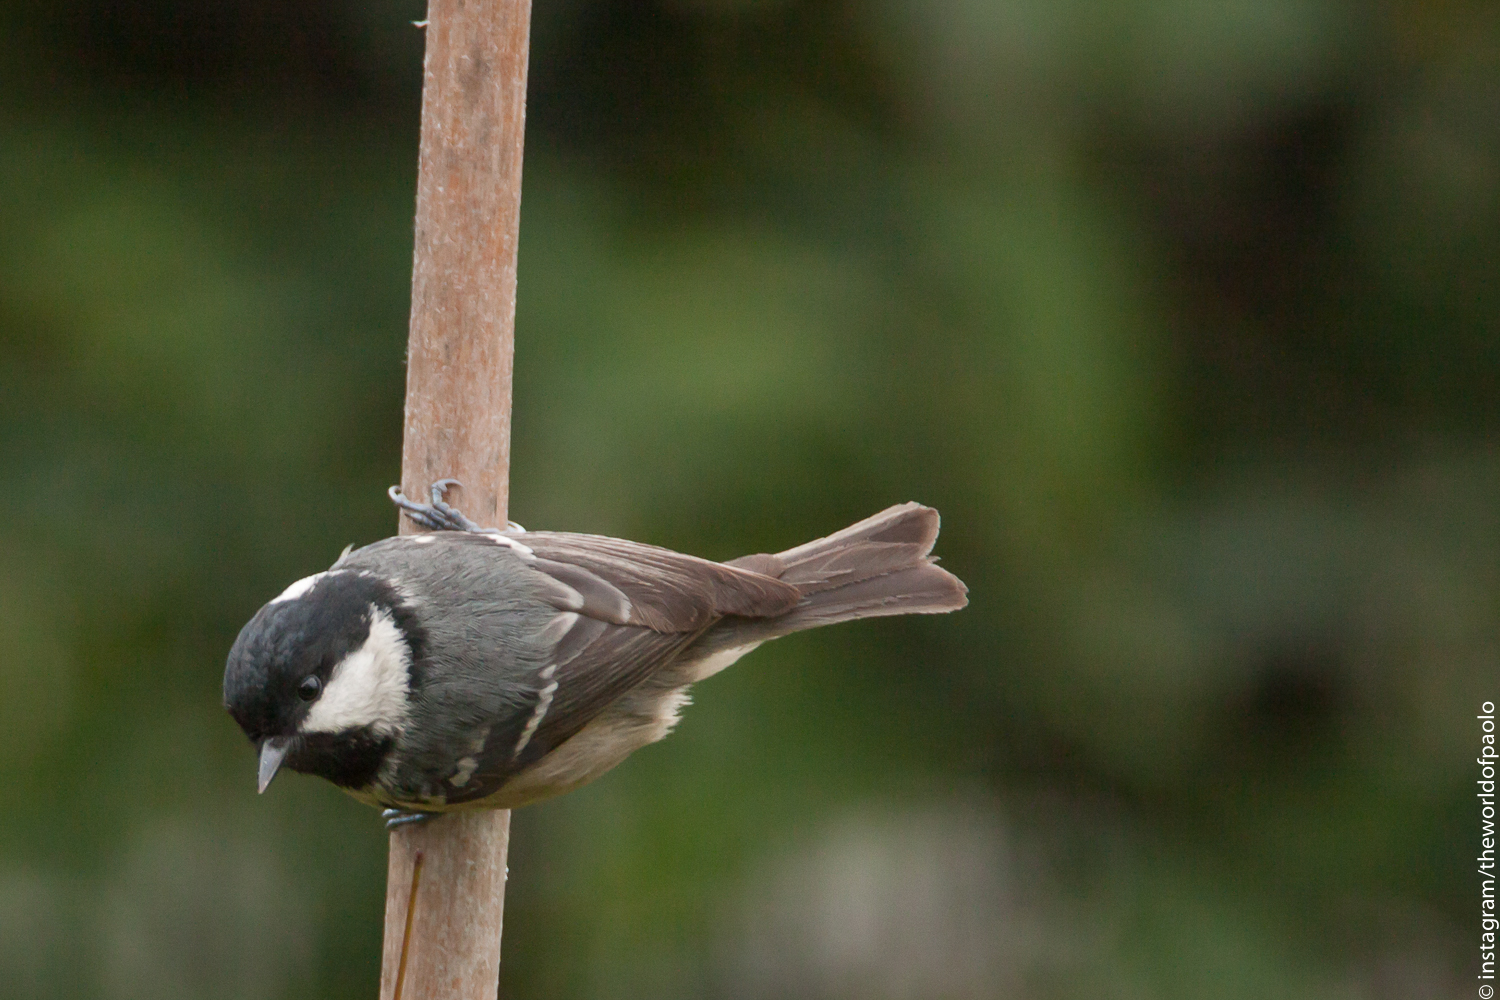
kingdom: Animalia
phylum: Chordata
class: Aves
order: Passeriformes
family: Paridae
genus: Periparus
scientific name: Periparus ater
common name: Coal tit
